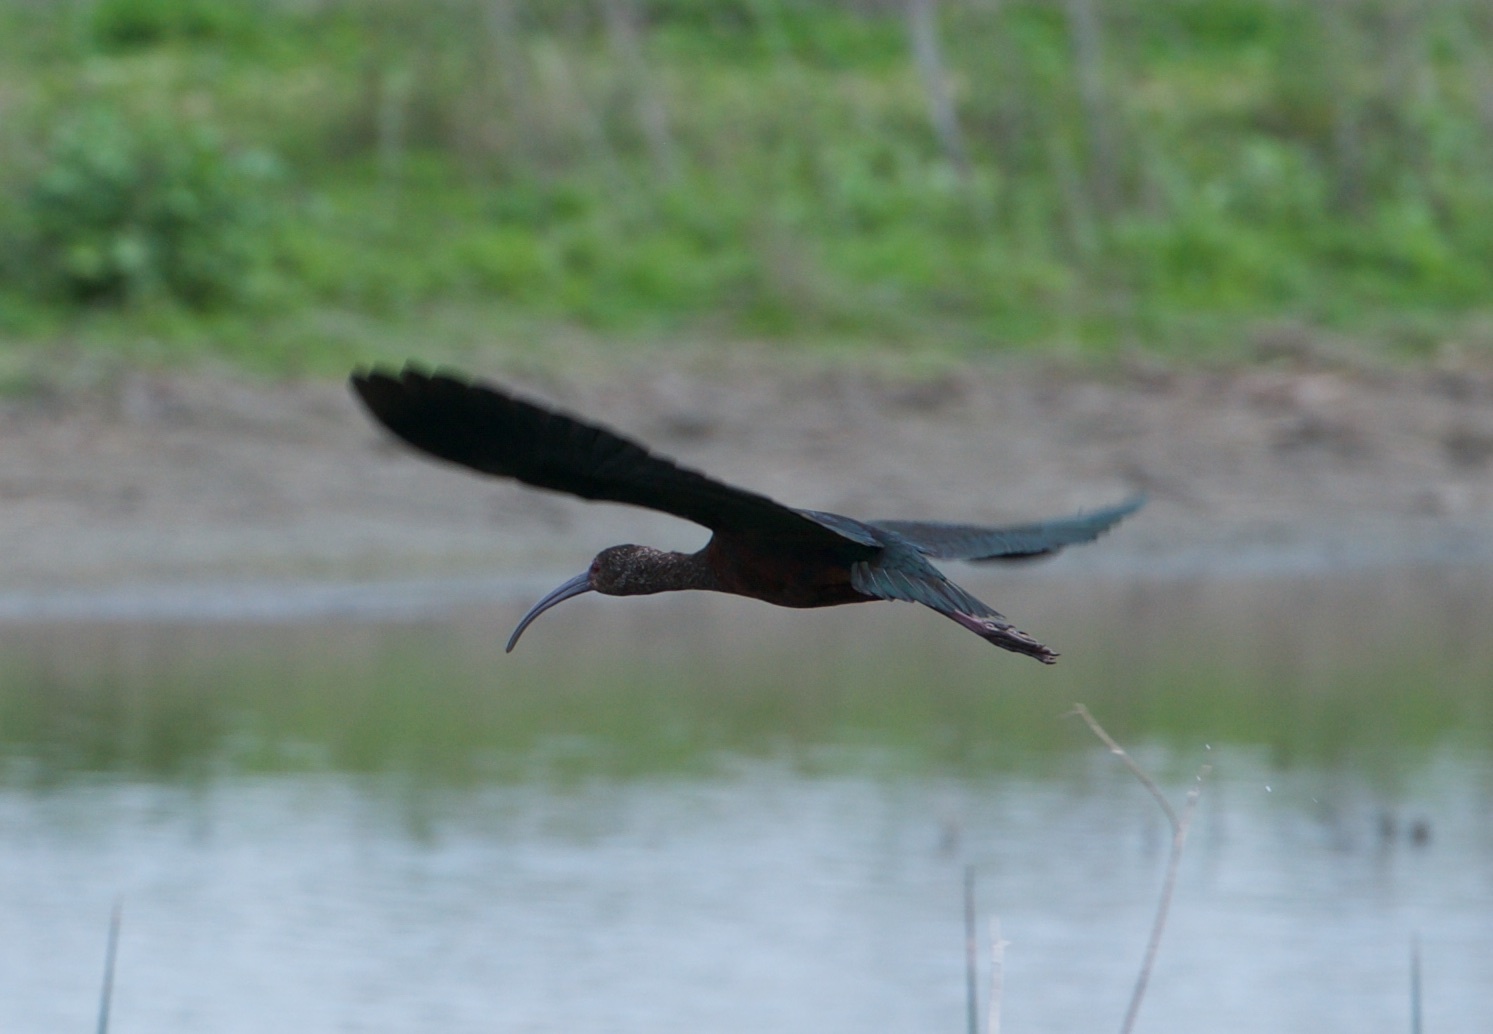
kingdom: Animalia
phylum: Chordata
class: Aves
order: Pelecaniformes
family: Threskiornithidae
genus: Plegadis
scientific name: Plegadis chihi
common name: White-faced ibis
